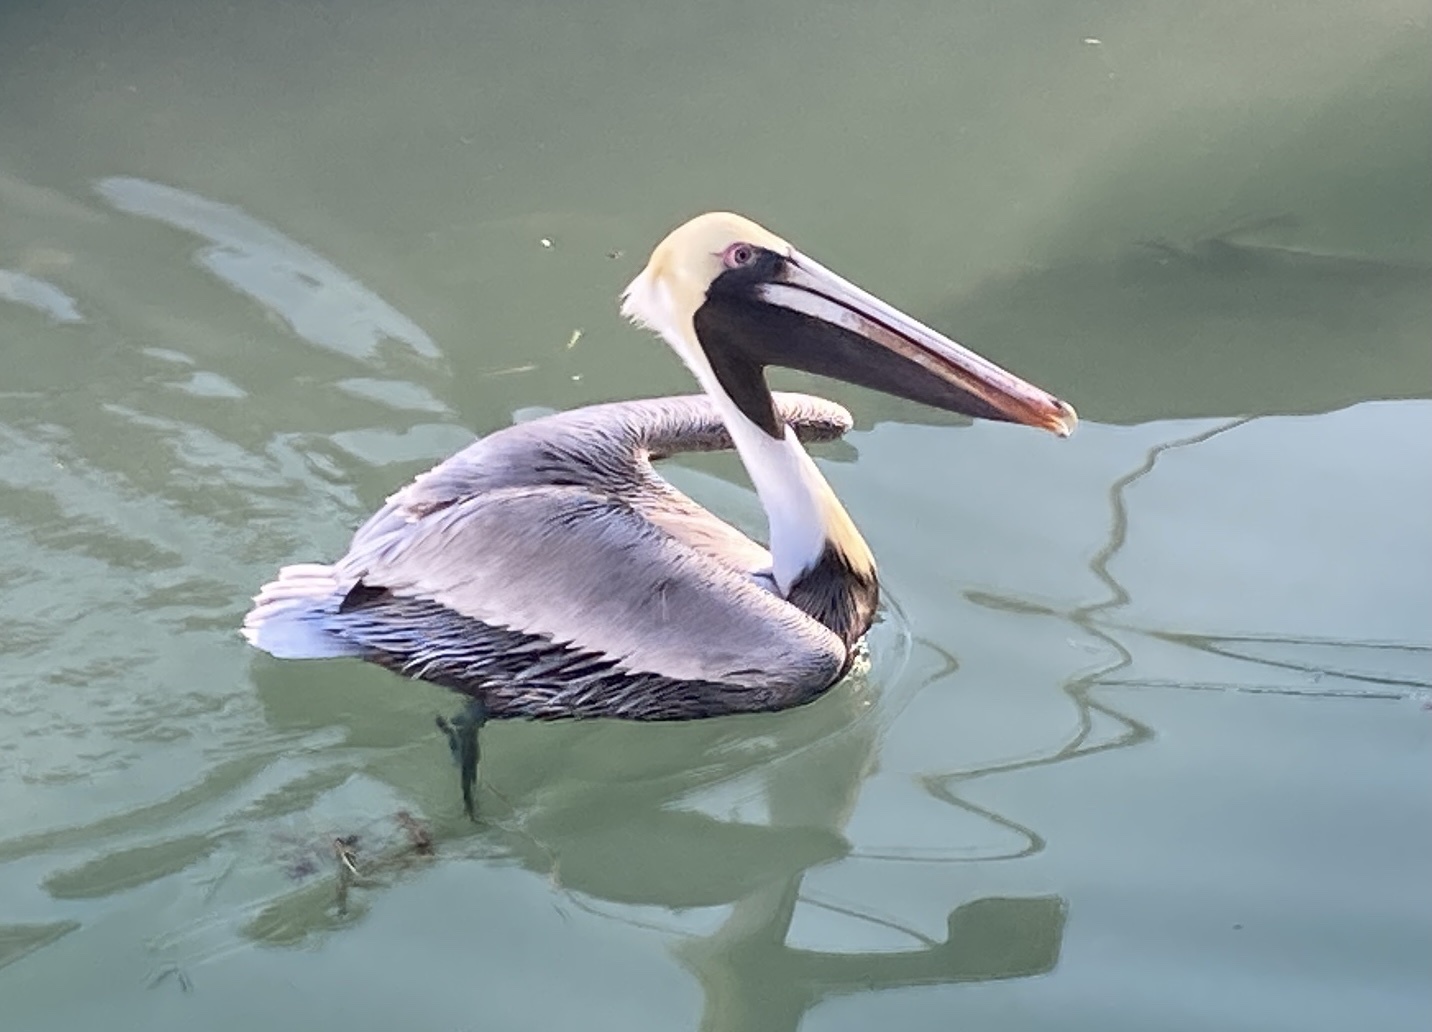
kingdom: Animalia
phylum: Chordata
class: Aves
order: Pelecaniformes
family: Pelecanidae
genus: Pelecanus
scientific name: Pelecanus occidentalis
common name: Brown pelican
